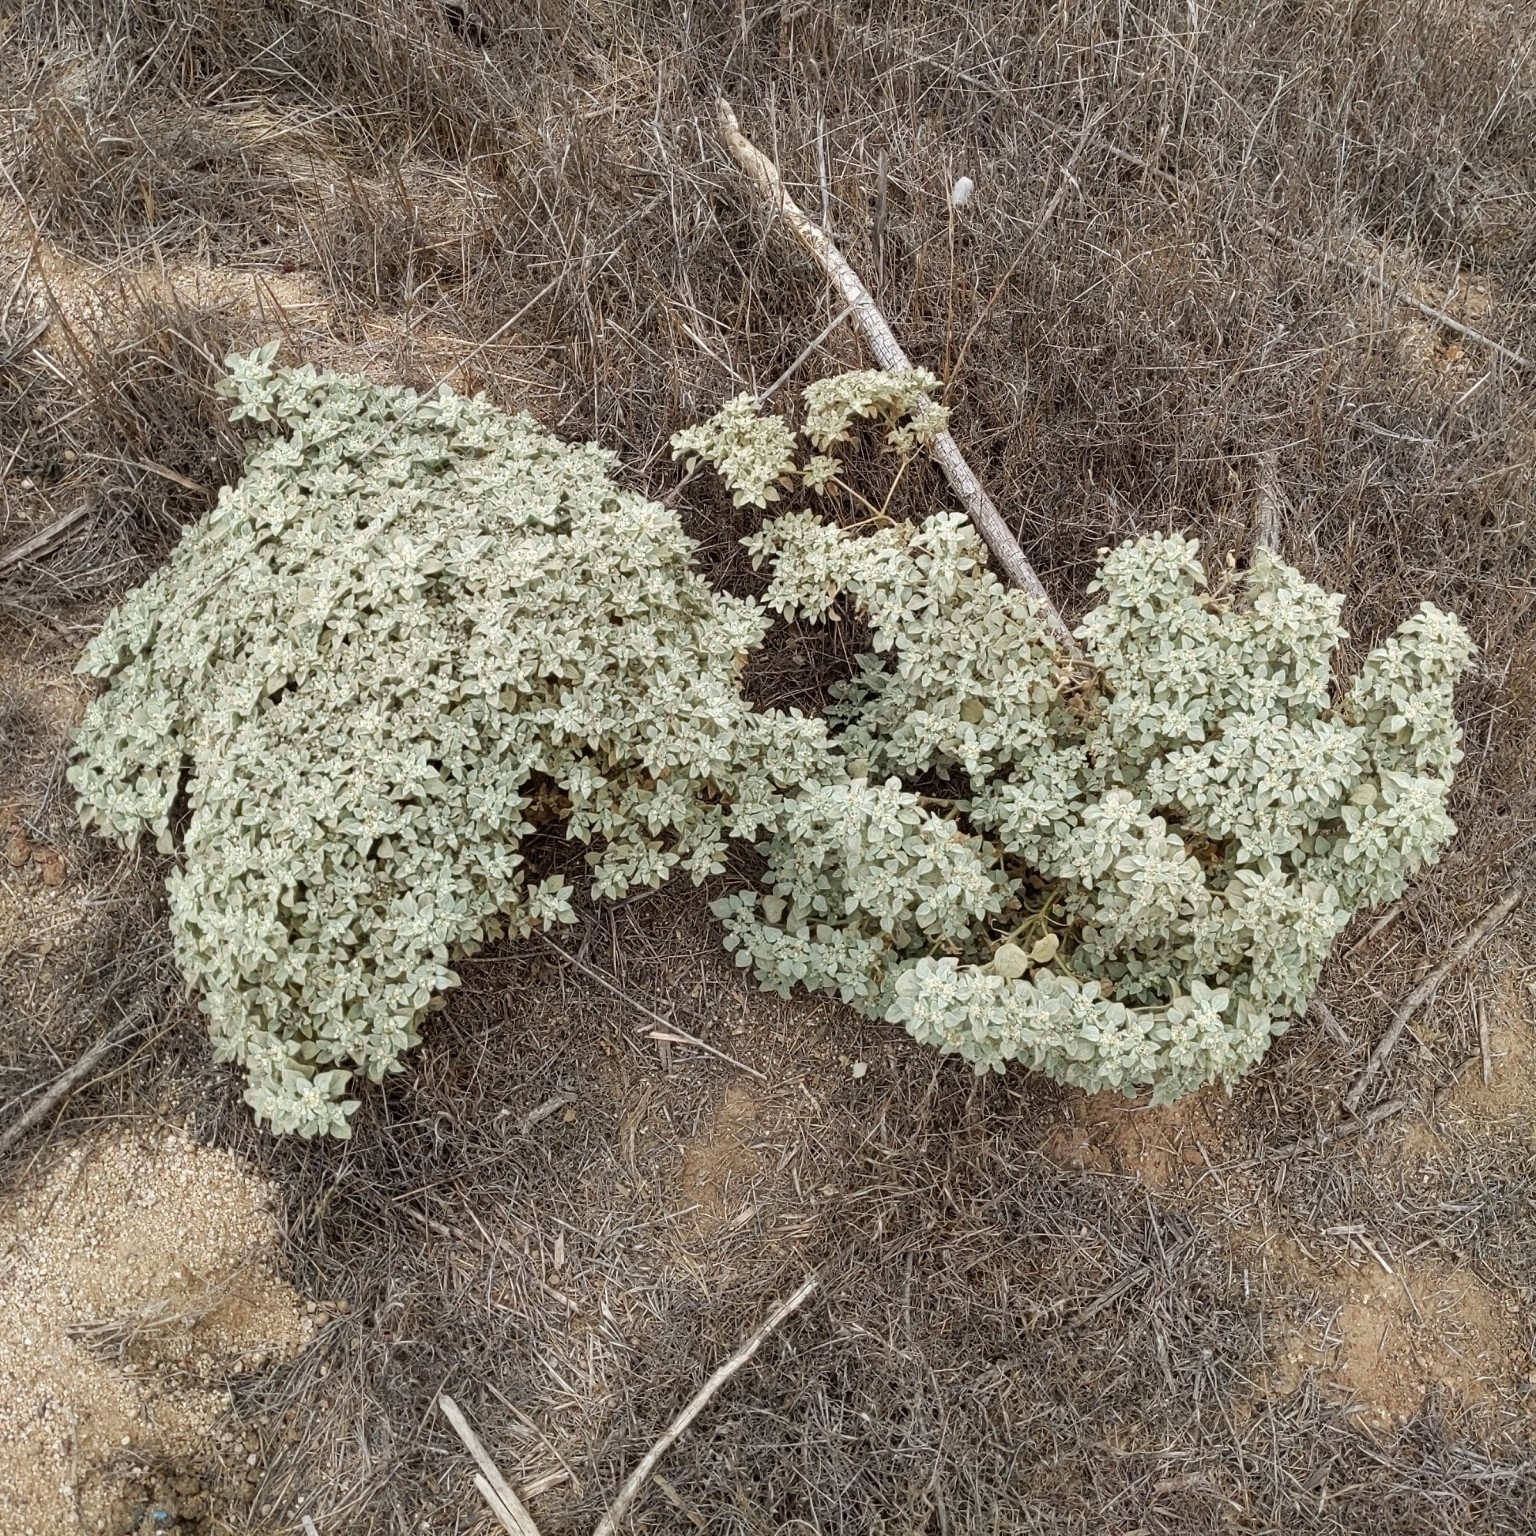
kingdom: Plantae
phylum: Tracheophyta
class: Magnoliopsida
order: Malpighiales
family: Euphorbiaceae
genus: Croton
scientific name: Croton setiger
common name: Dove weed
